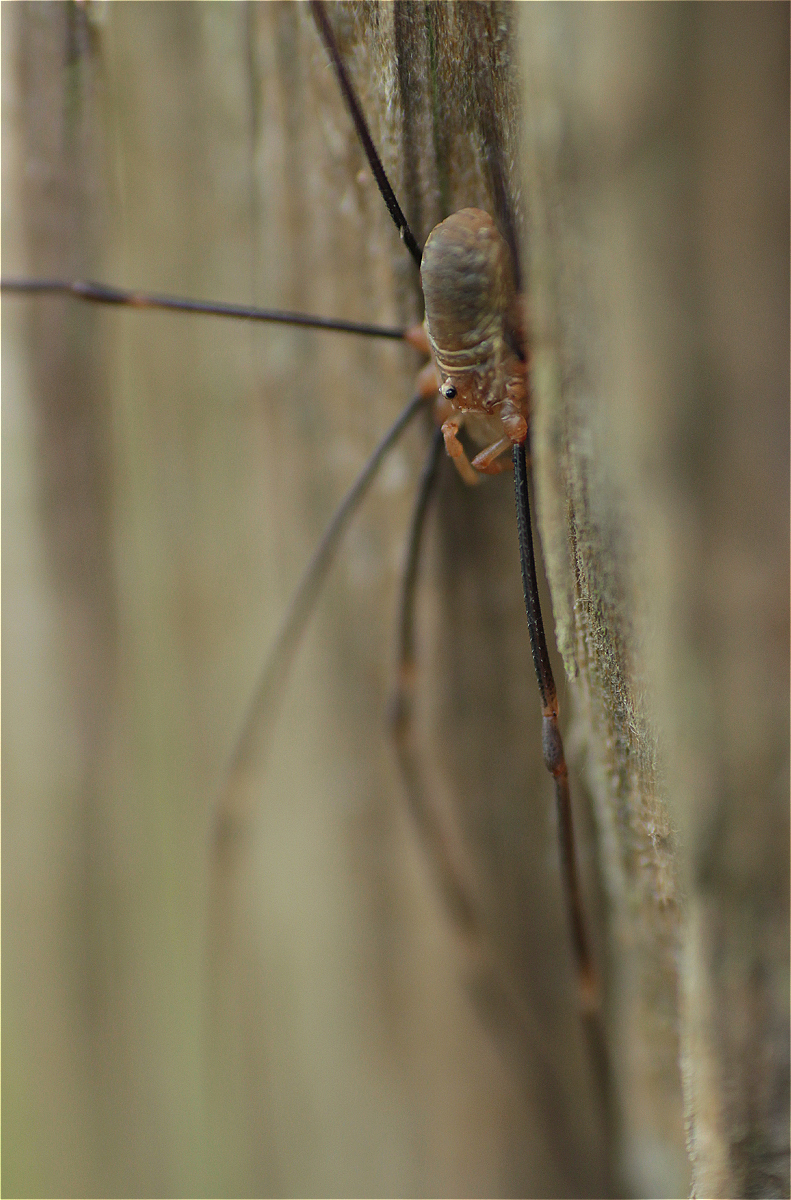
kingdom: Animalia
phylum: Arthropoda
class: Arachnida
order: Opiliones
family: Phalangiidae
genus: Opilio
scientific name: Opilio canestrinii
